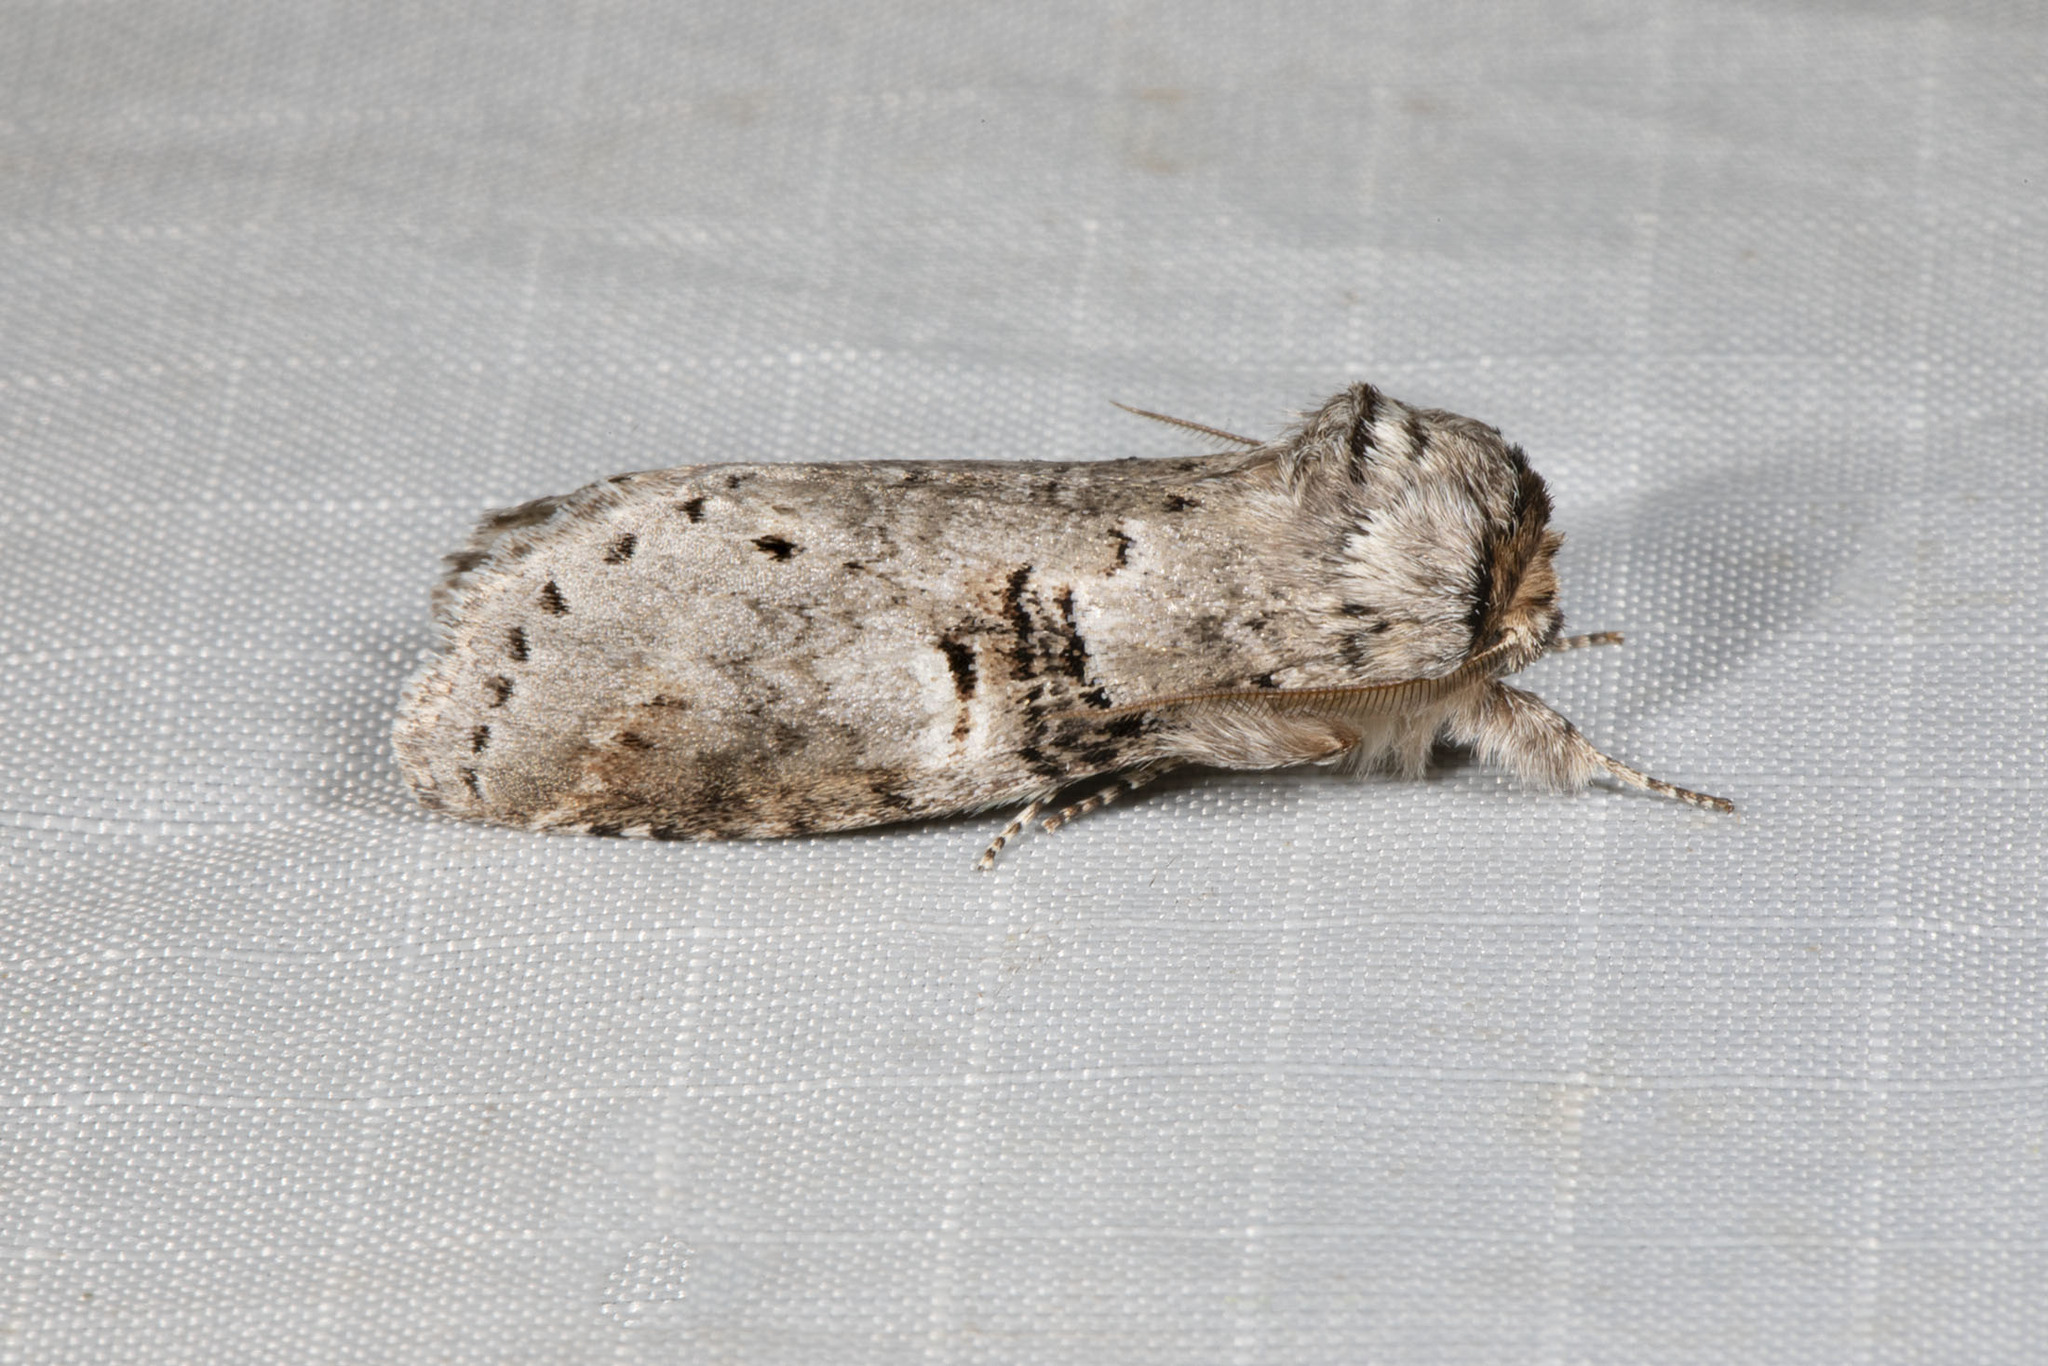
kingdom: Animalia
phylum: Arthropoda
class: Insecta
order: Lepidoptera
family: Notodontidae
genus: Ellida
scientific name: Ellida caniplaga
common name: Linden prominent
